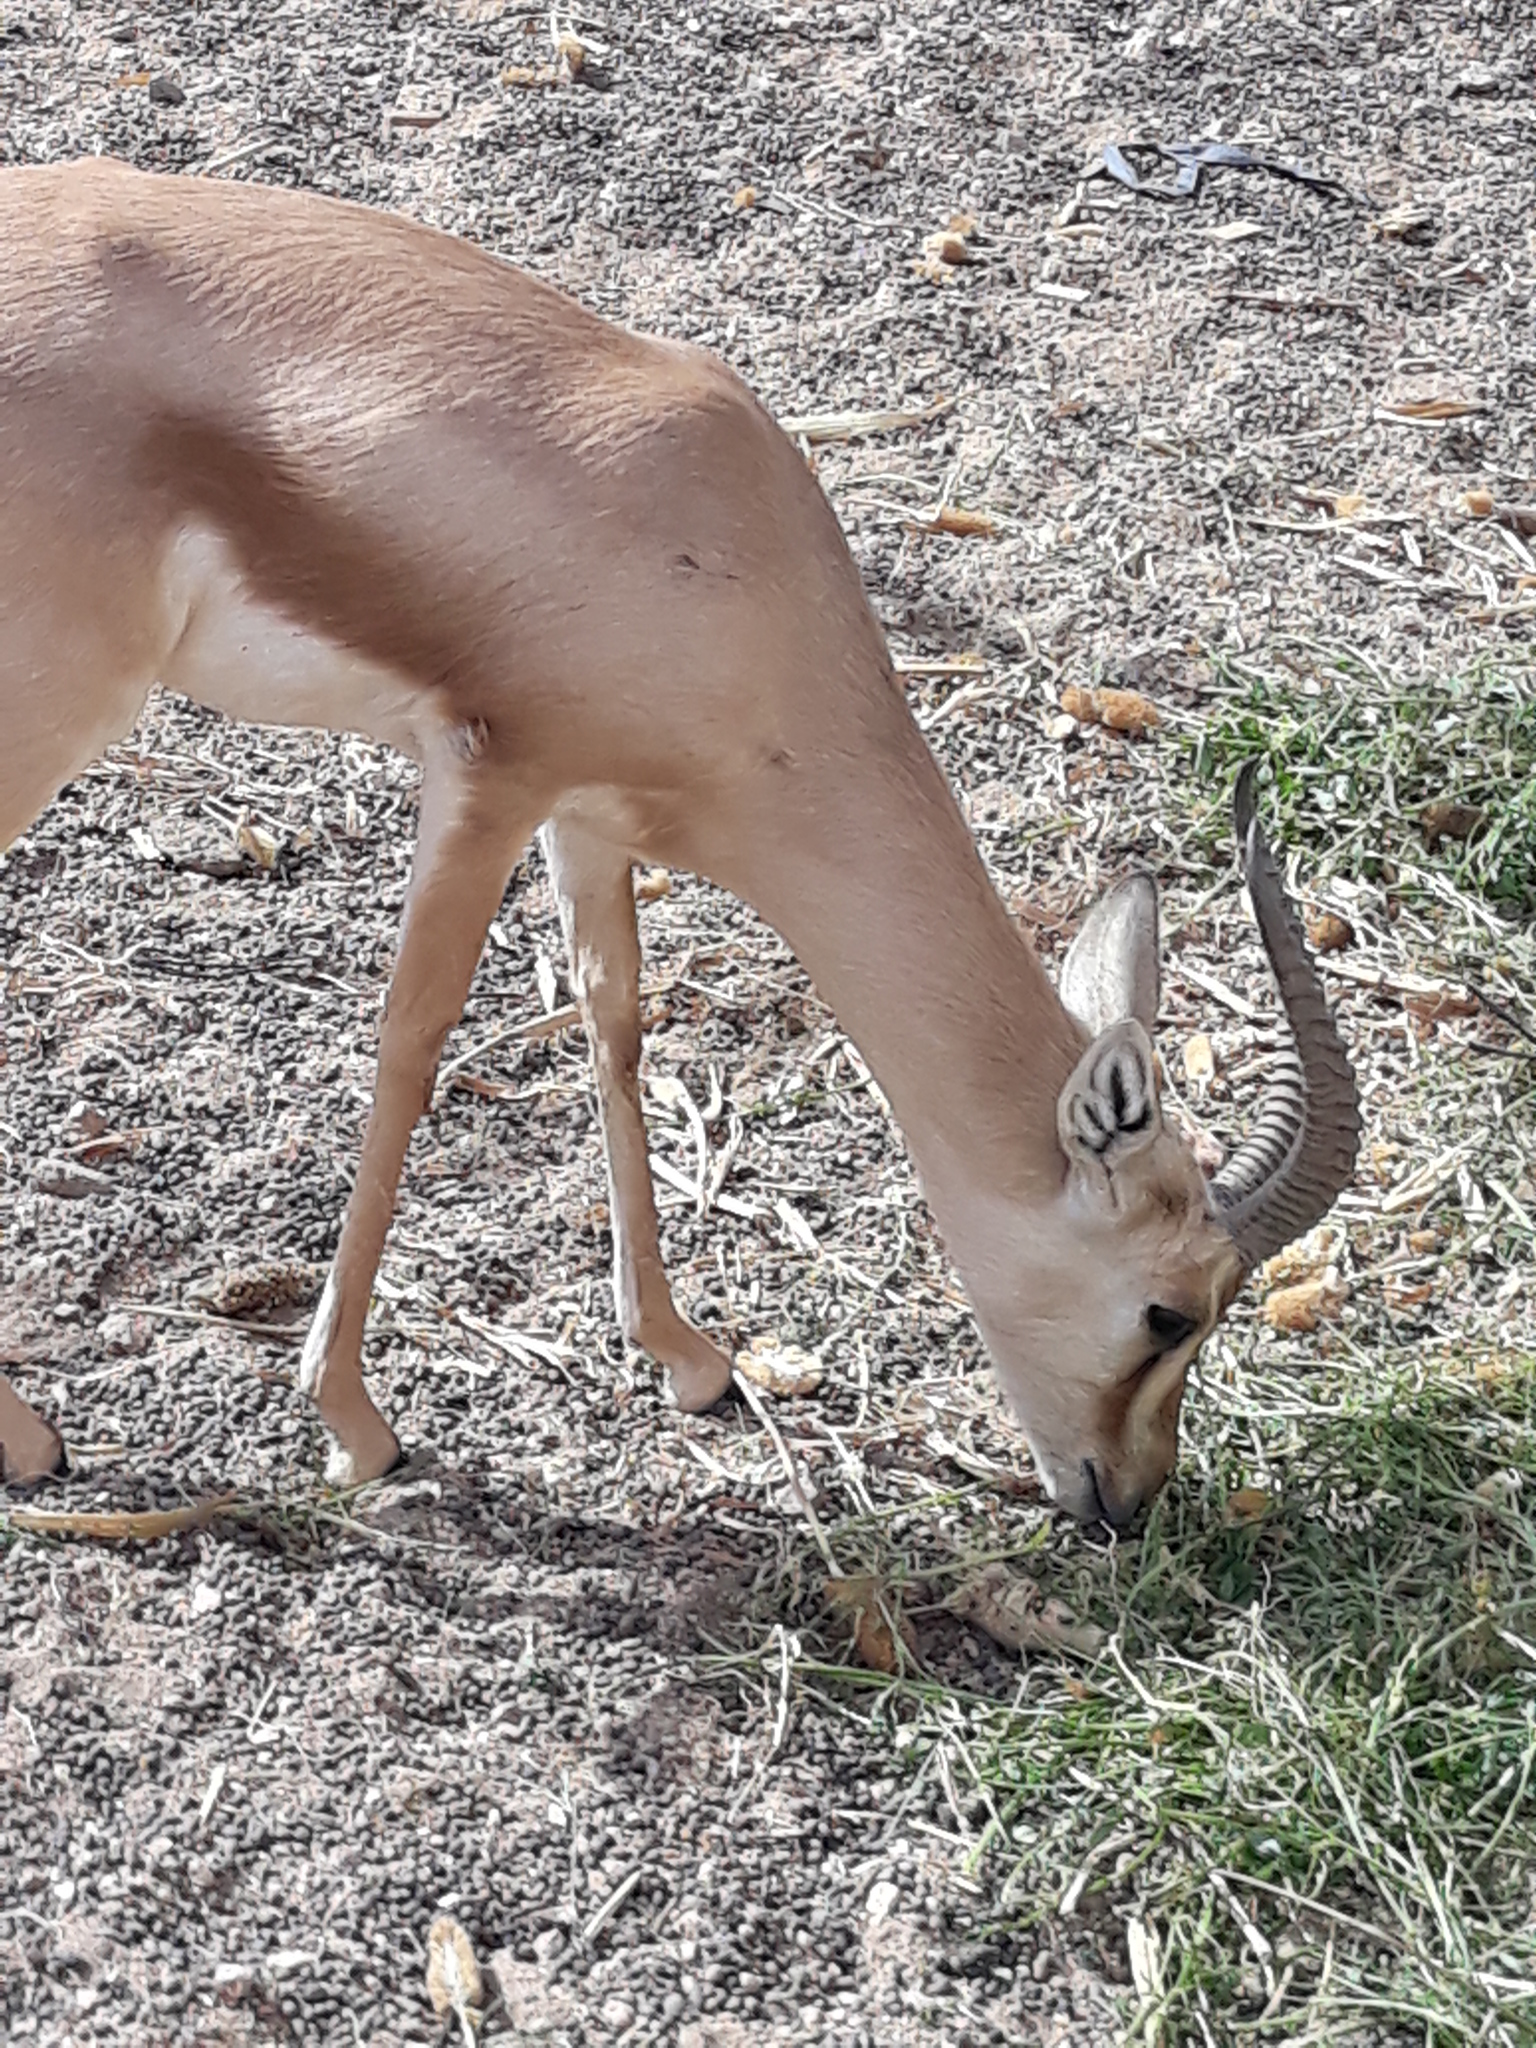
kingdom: Animalia
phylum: Chordata
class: Mammalia
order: Artiodactyla
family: Bovidae
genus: Gazella
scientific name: Gazella dorcas
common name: Dorcas gazelle
